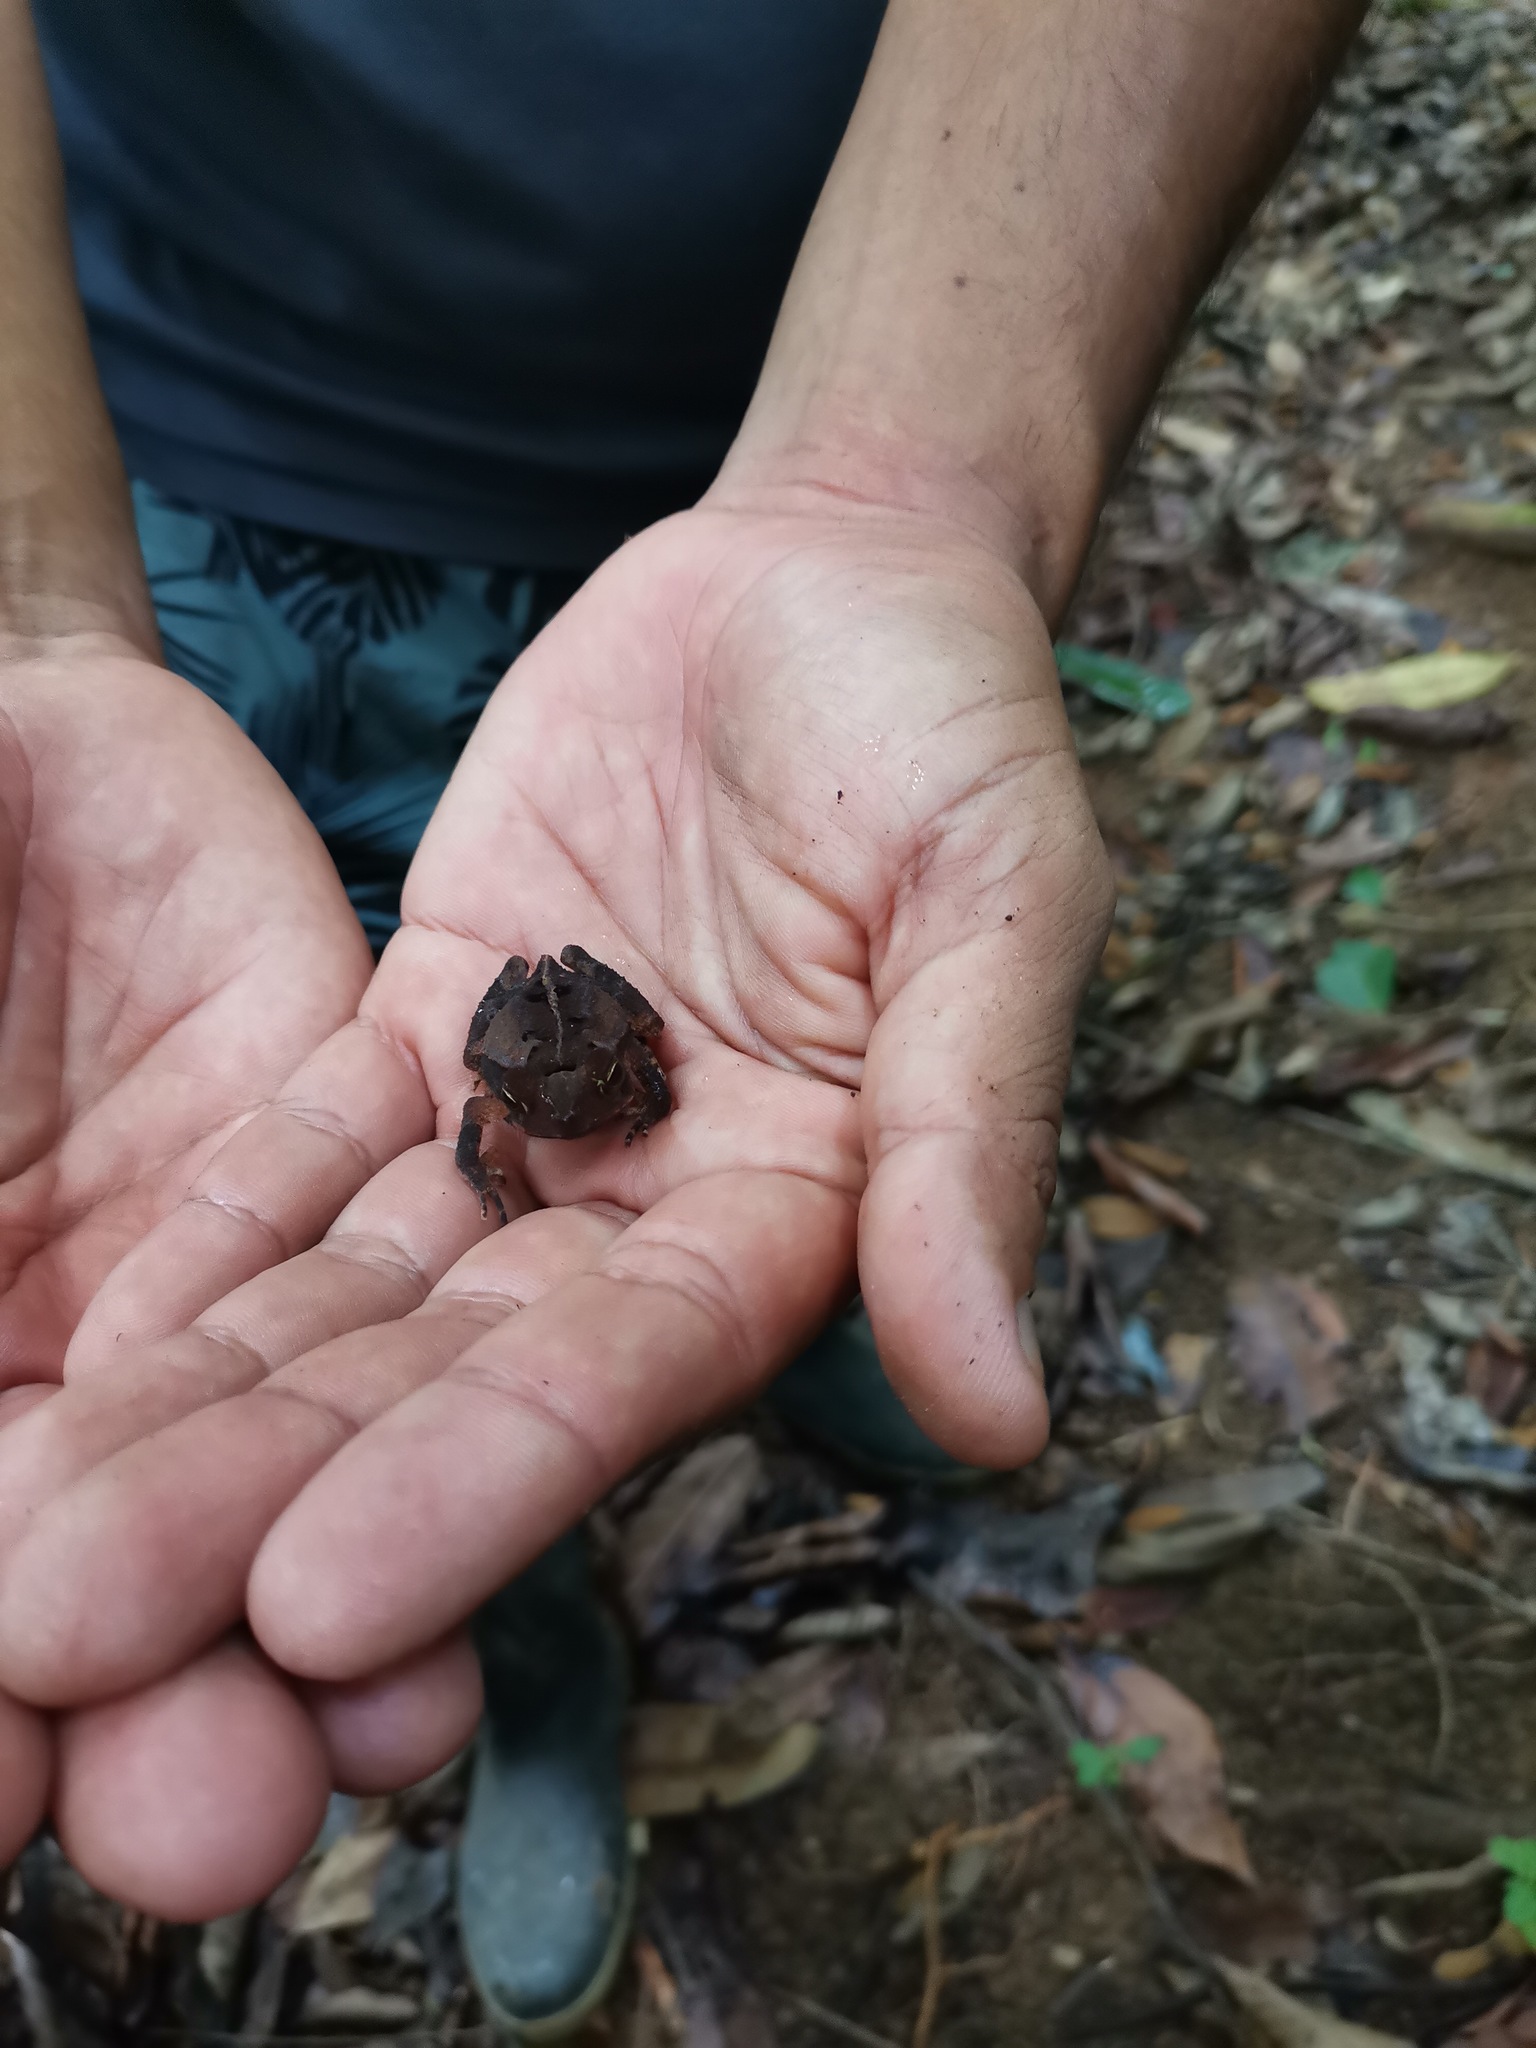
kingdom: Animalia
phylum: Chordata
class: Amphibia
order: Anura
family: Bufonidae
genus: Rhaebo
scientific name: Rhaebo haematiticus
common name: Truando toad
